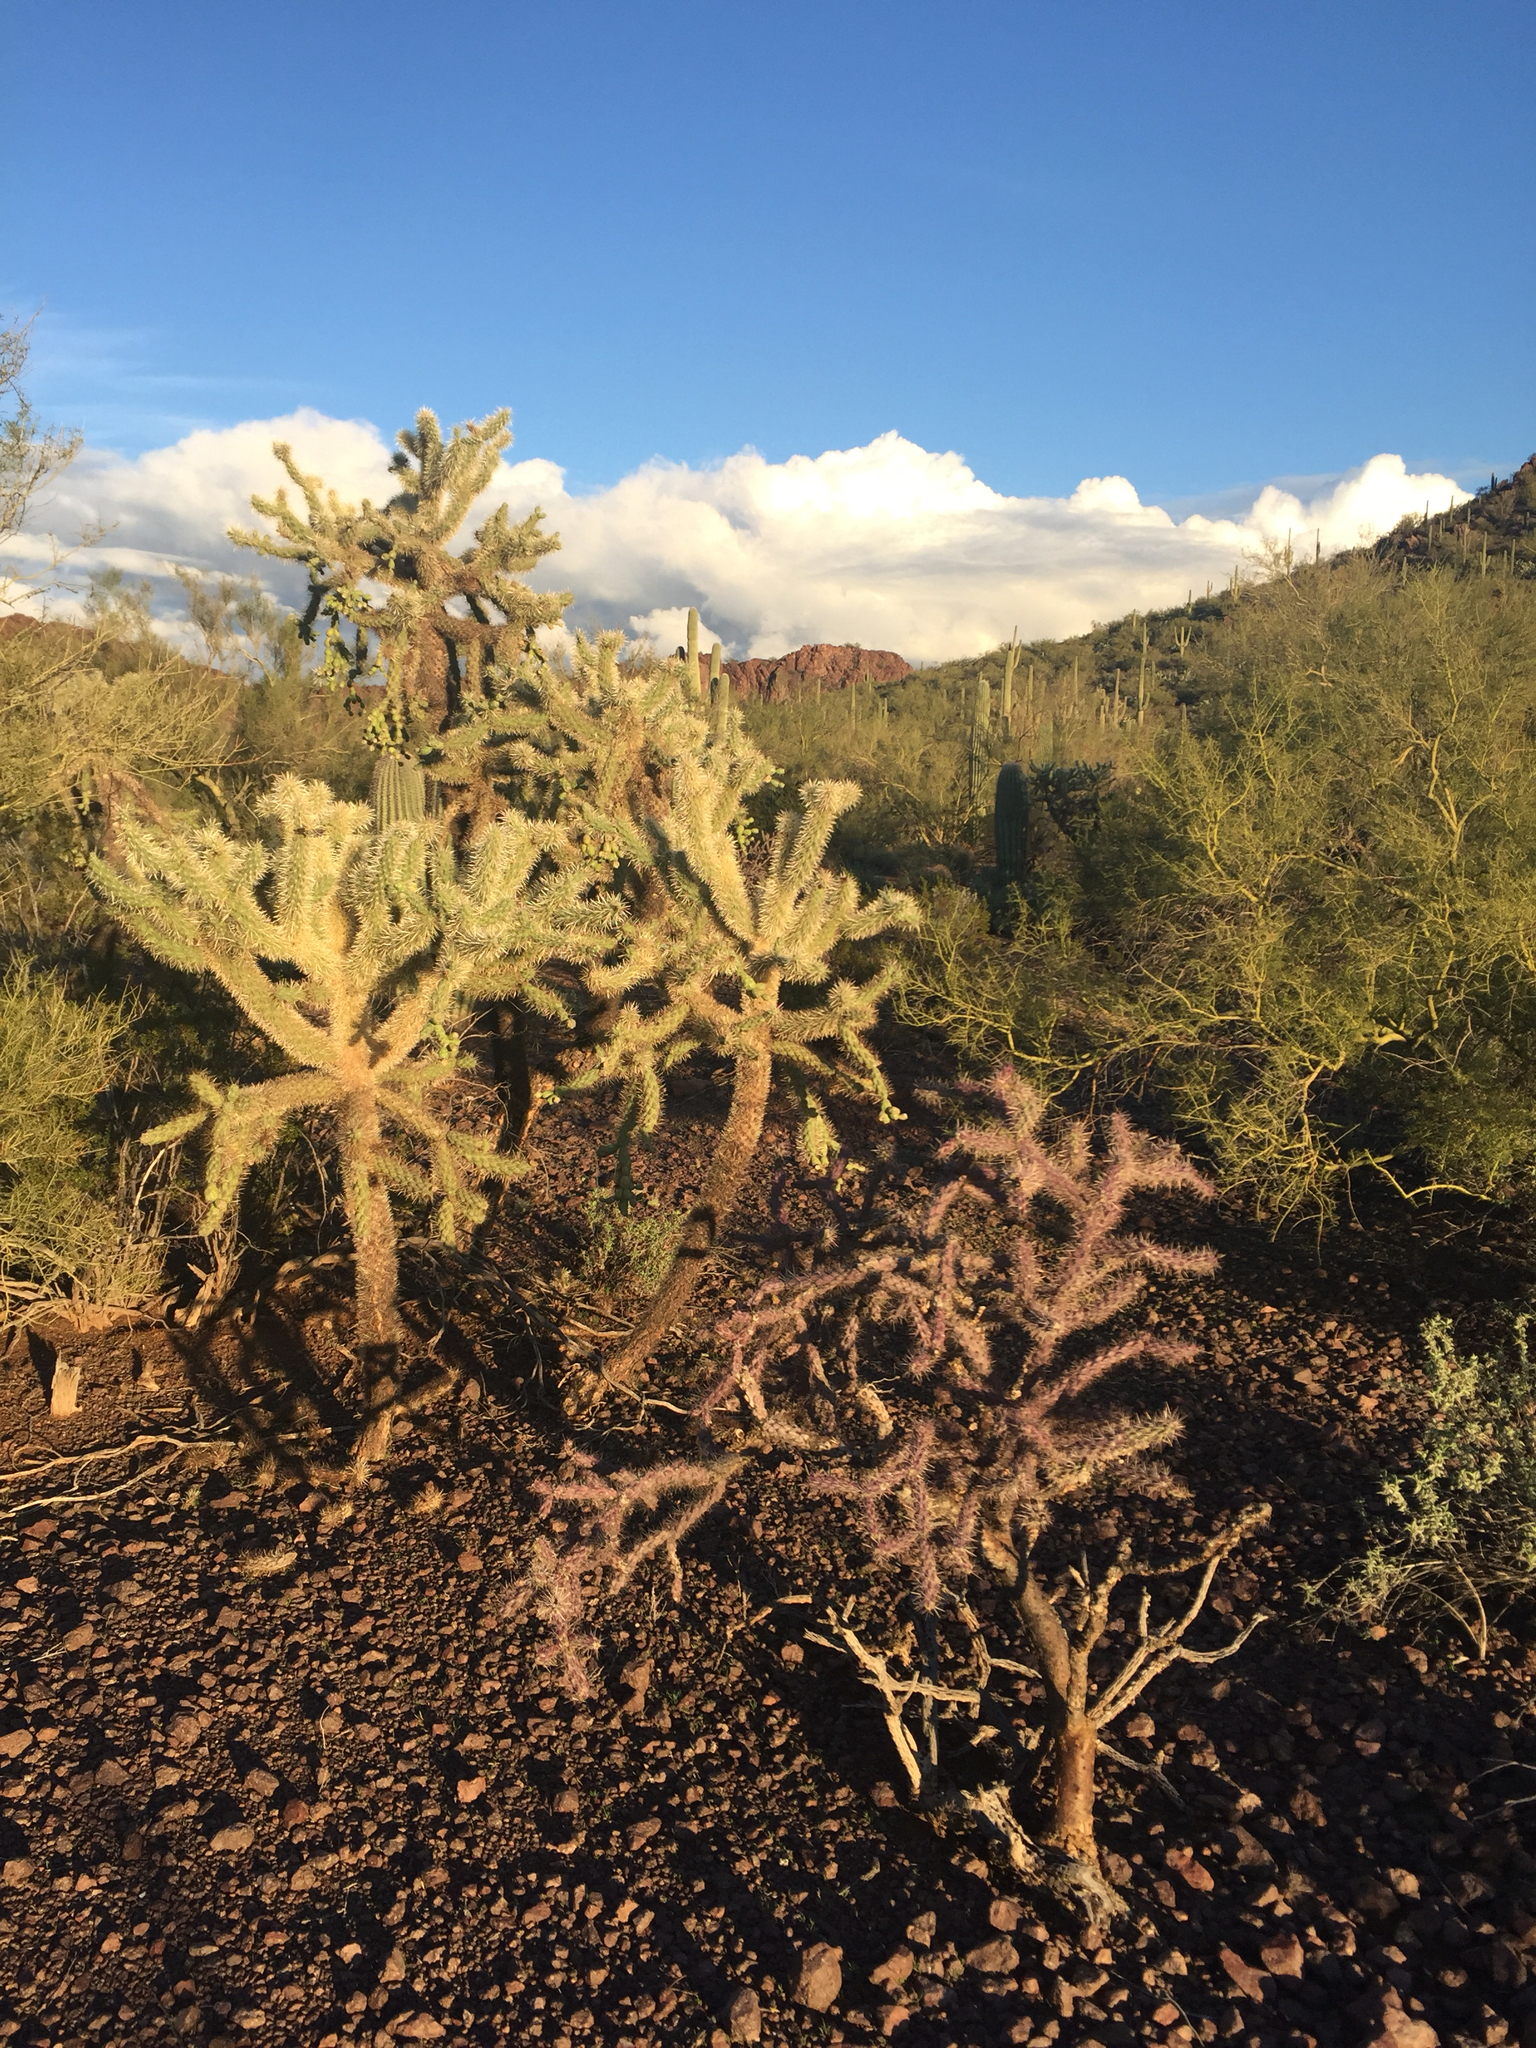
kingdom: Plantae
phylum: Tracheophyta
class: Magnoliopsida
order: Caryophyllales
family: Cactaceae
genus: Cylindropuntia
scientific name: Cylindropuntia thurberi
